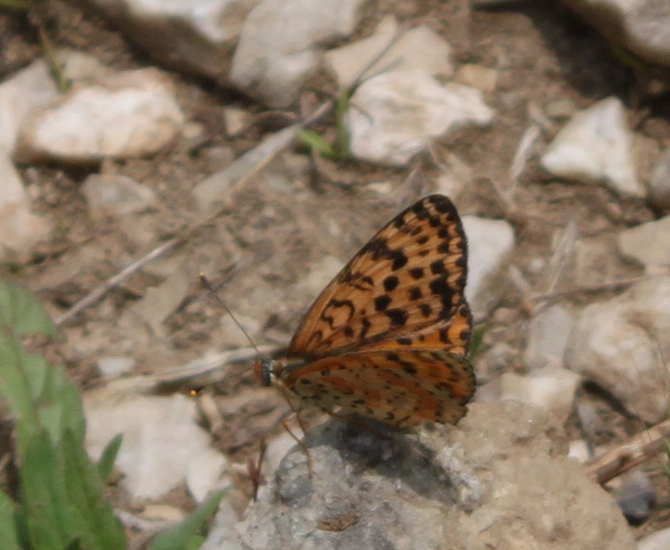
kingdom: Animalia
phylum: Arthropoda
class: Insecta
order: Lepidoptera
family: Nymphalidae
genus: Melitaea
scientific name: Melitaea didyma
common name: Spotted fritillary
